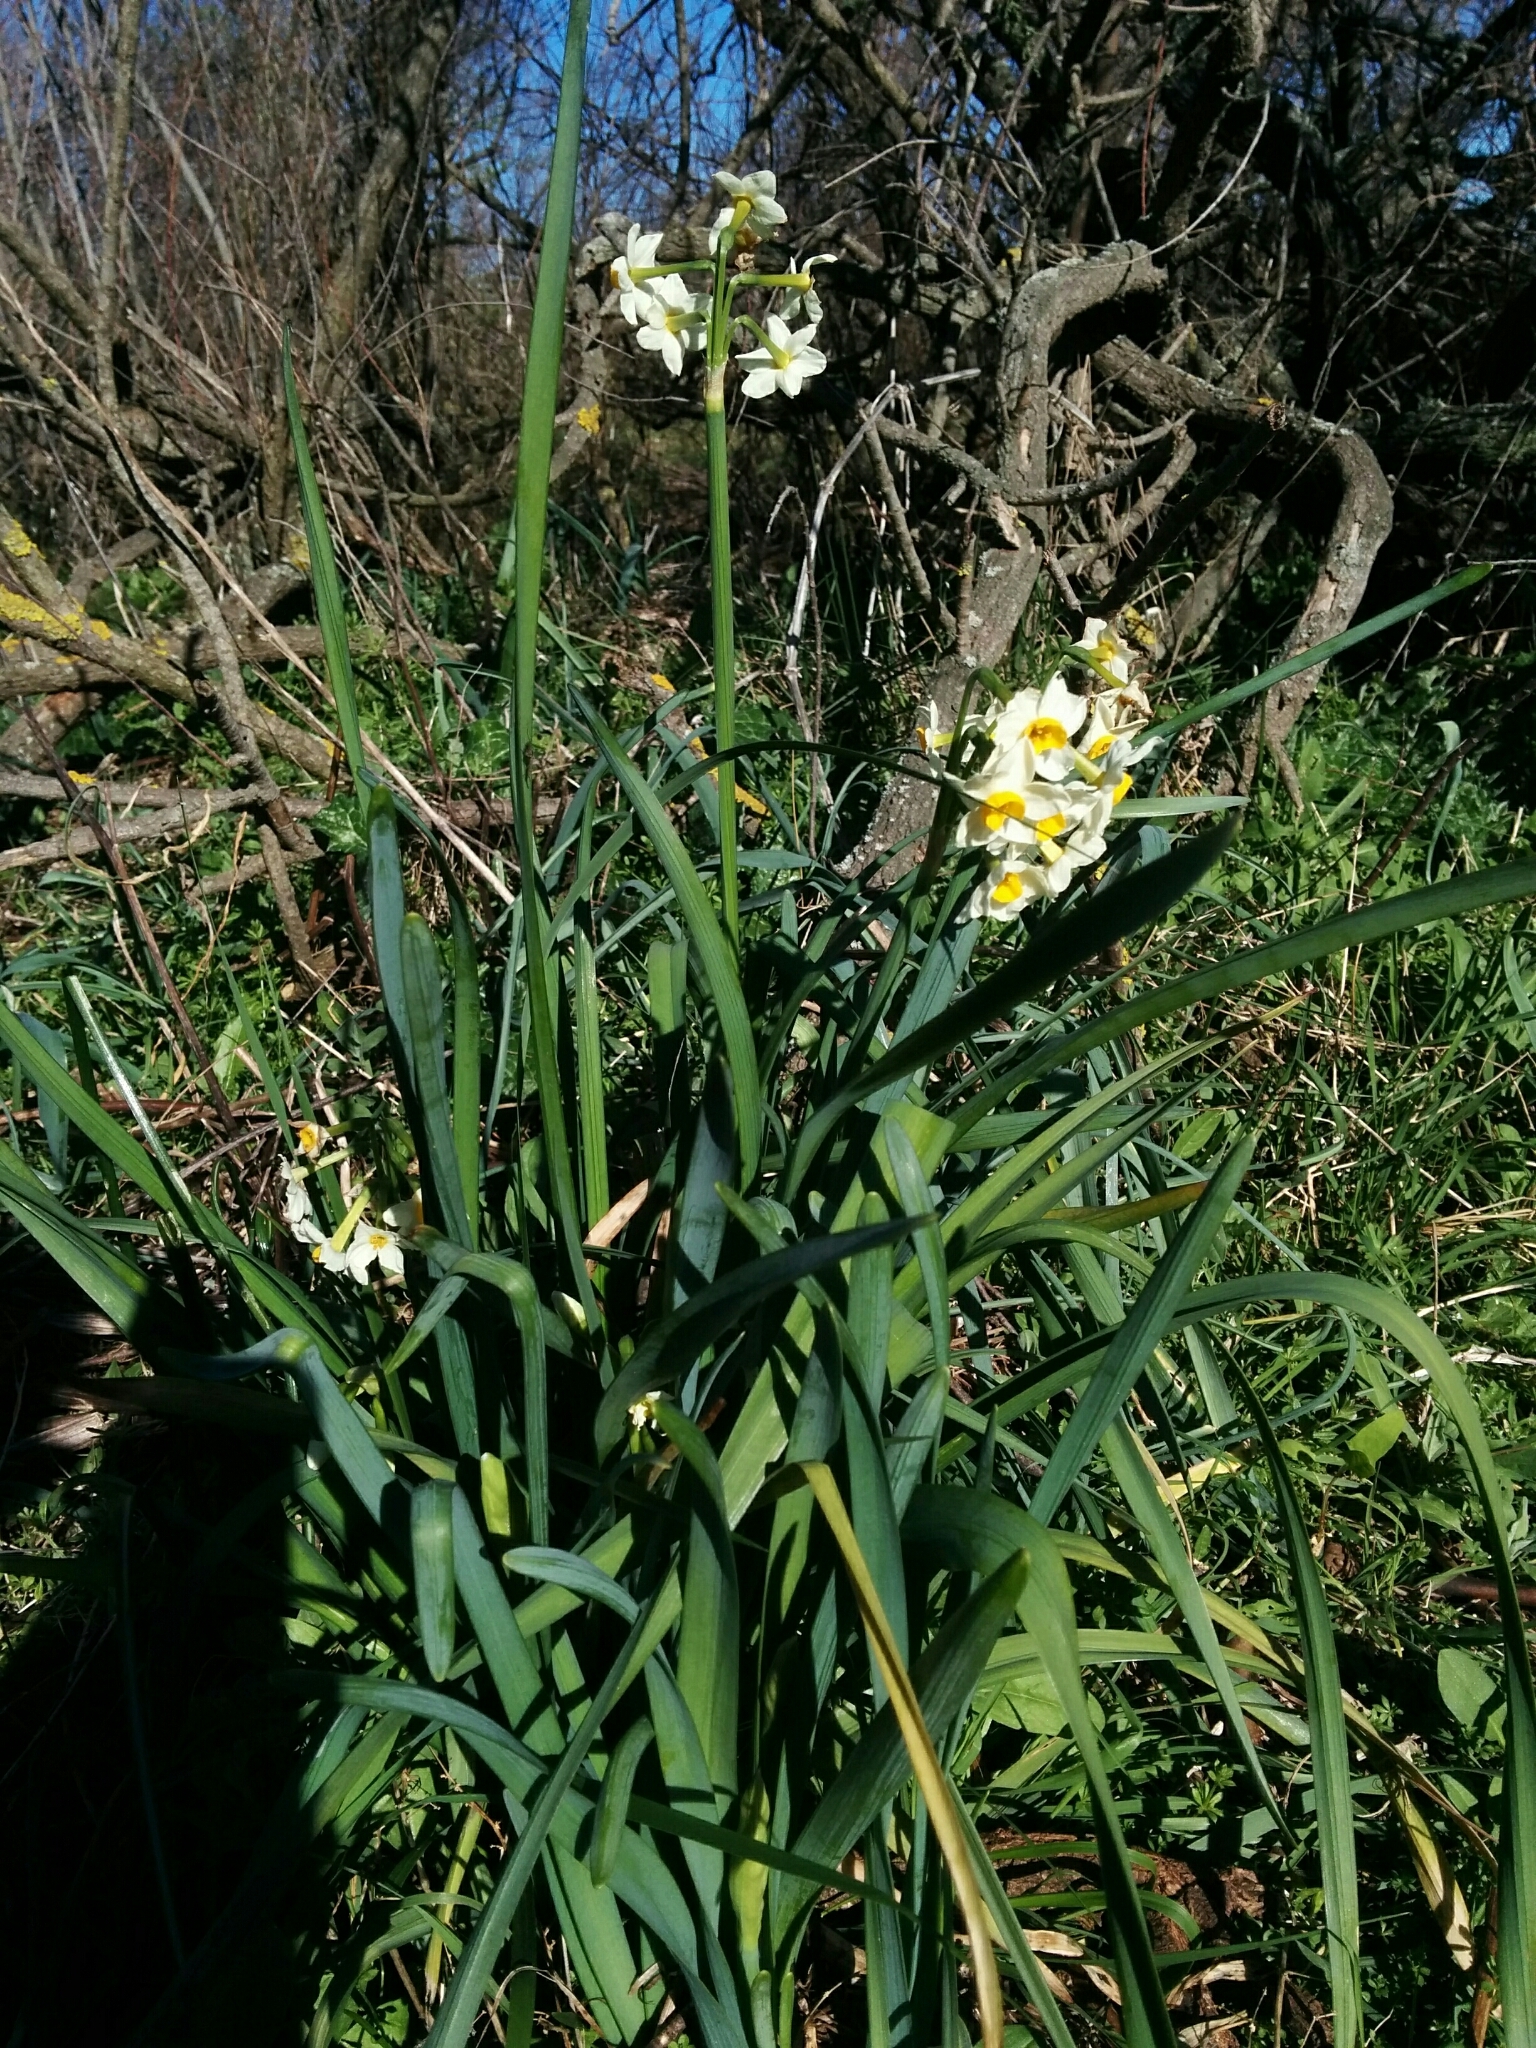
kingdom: Plantae
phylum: Tracheophyta
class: Liliopsida
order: Asparagales
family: Amaryllidaceae
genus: Narcissus
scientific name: Narcissus tazetta
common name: Bunch-flowered daffodil
